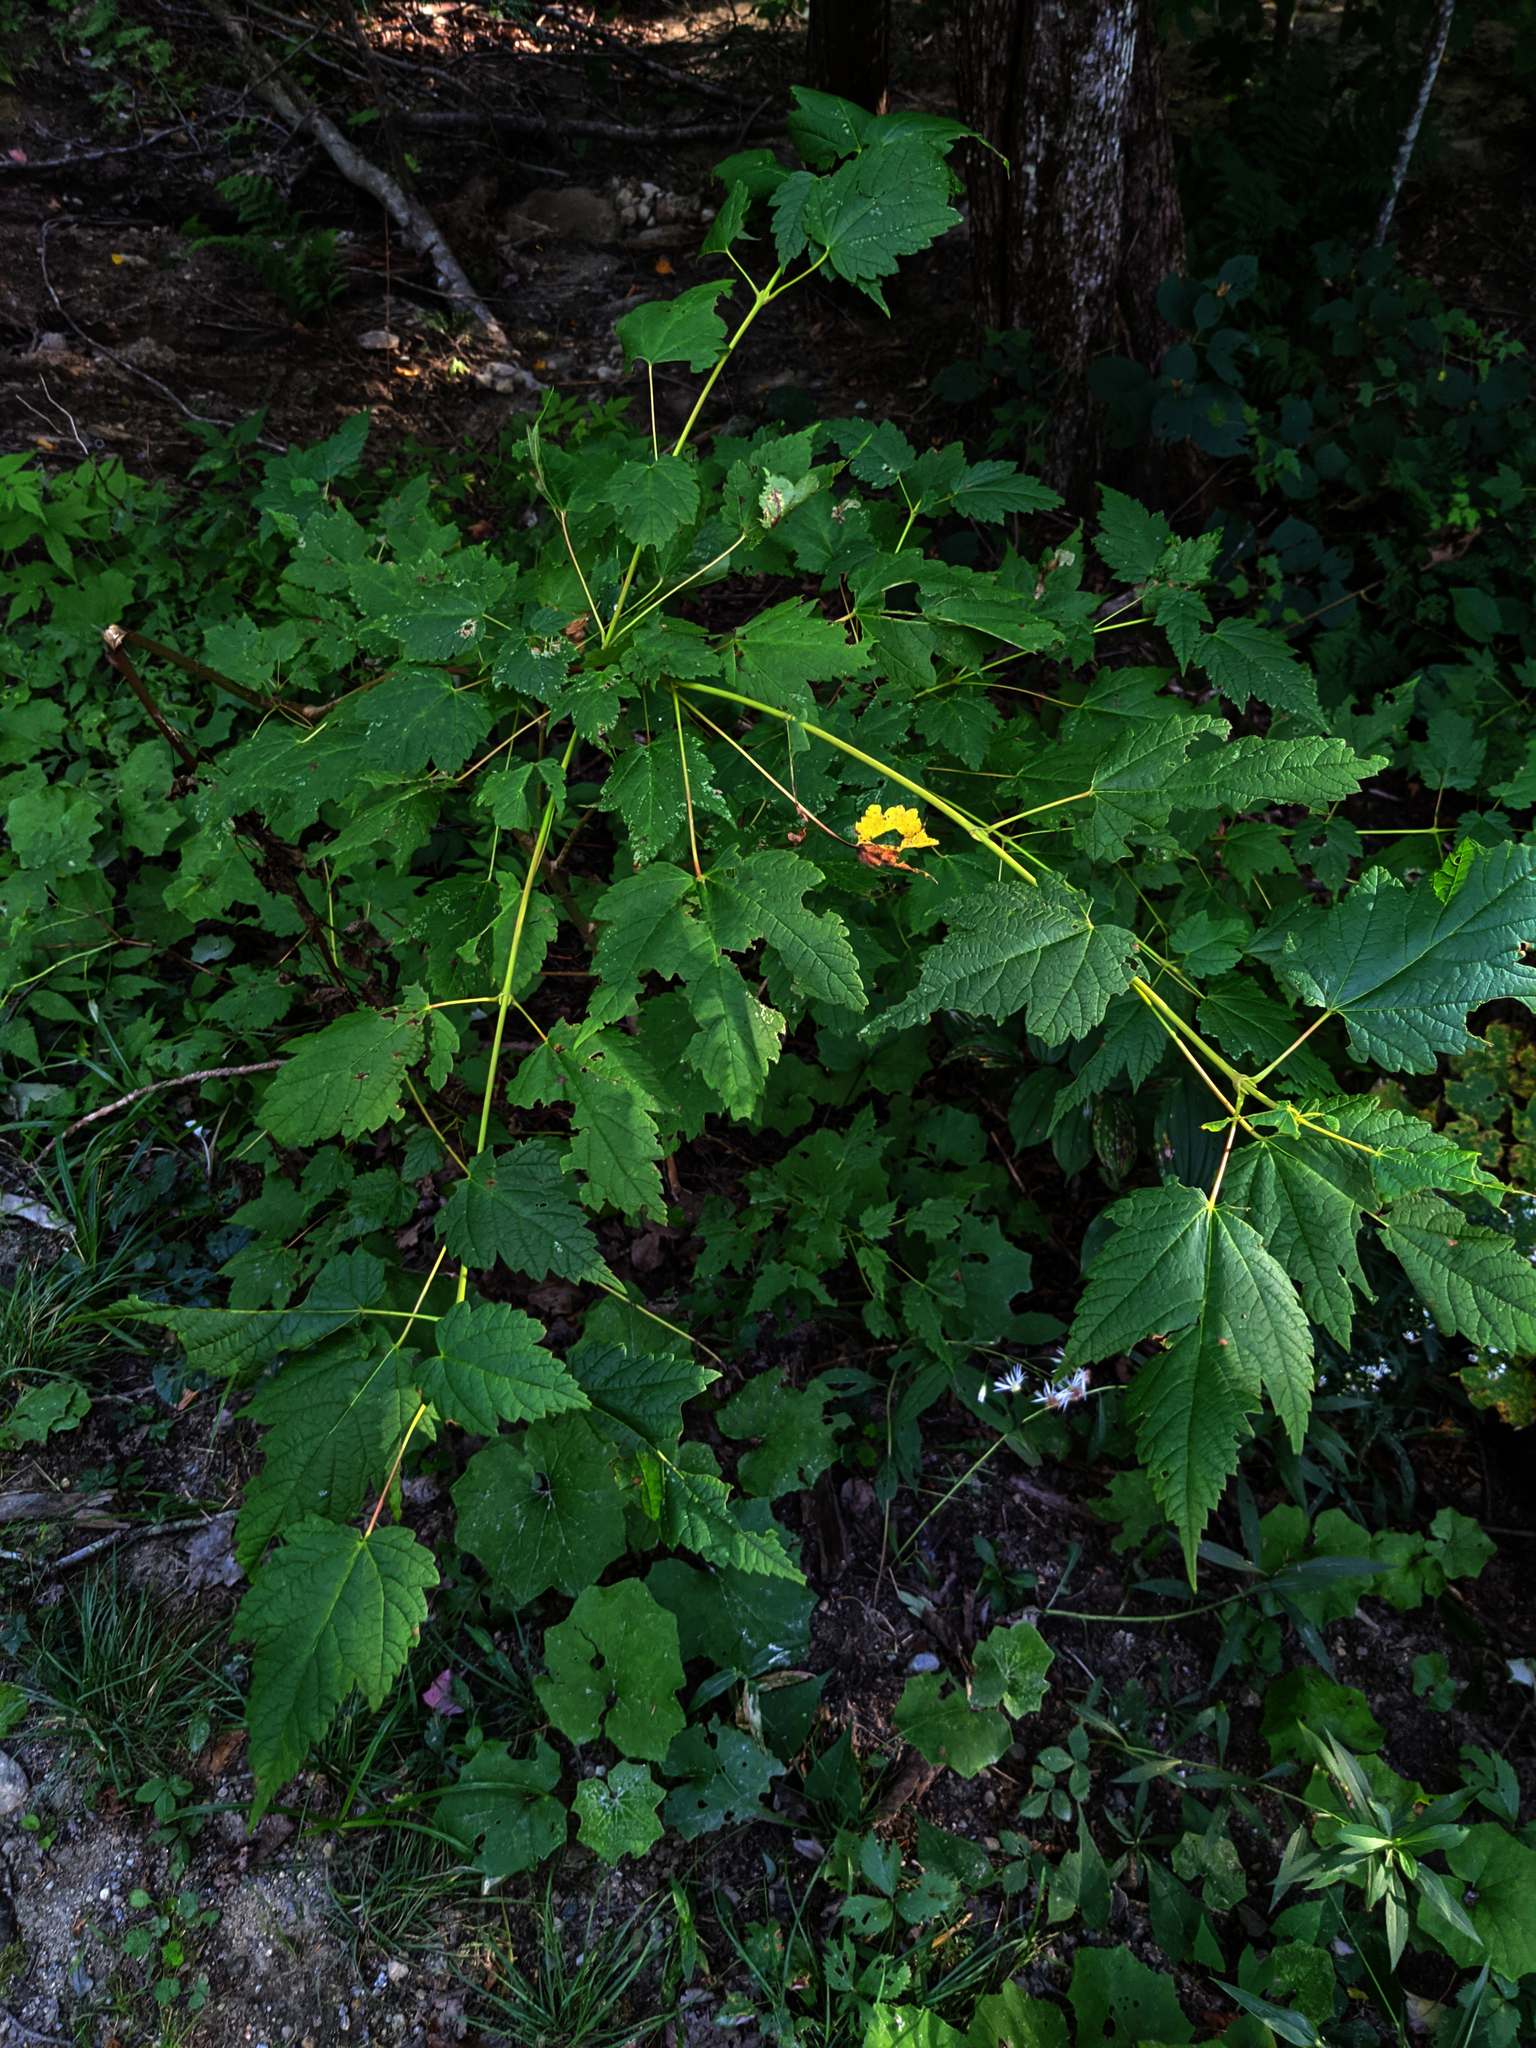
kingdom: Plantae
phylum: Tracheophyta
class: Magnoliopsida
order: Sapindales
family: Sapindaceae
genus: Acer
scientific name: Acer spicatum
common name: Mountain maple
